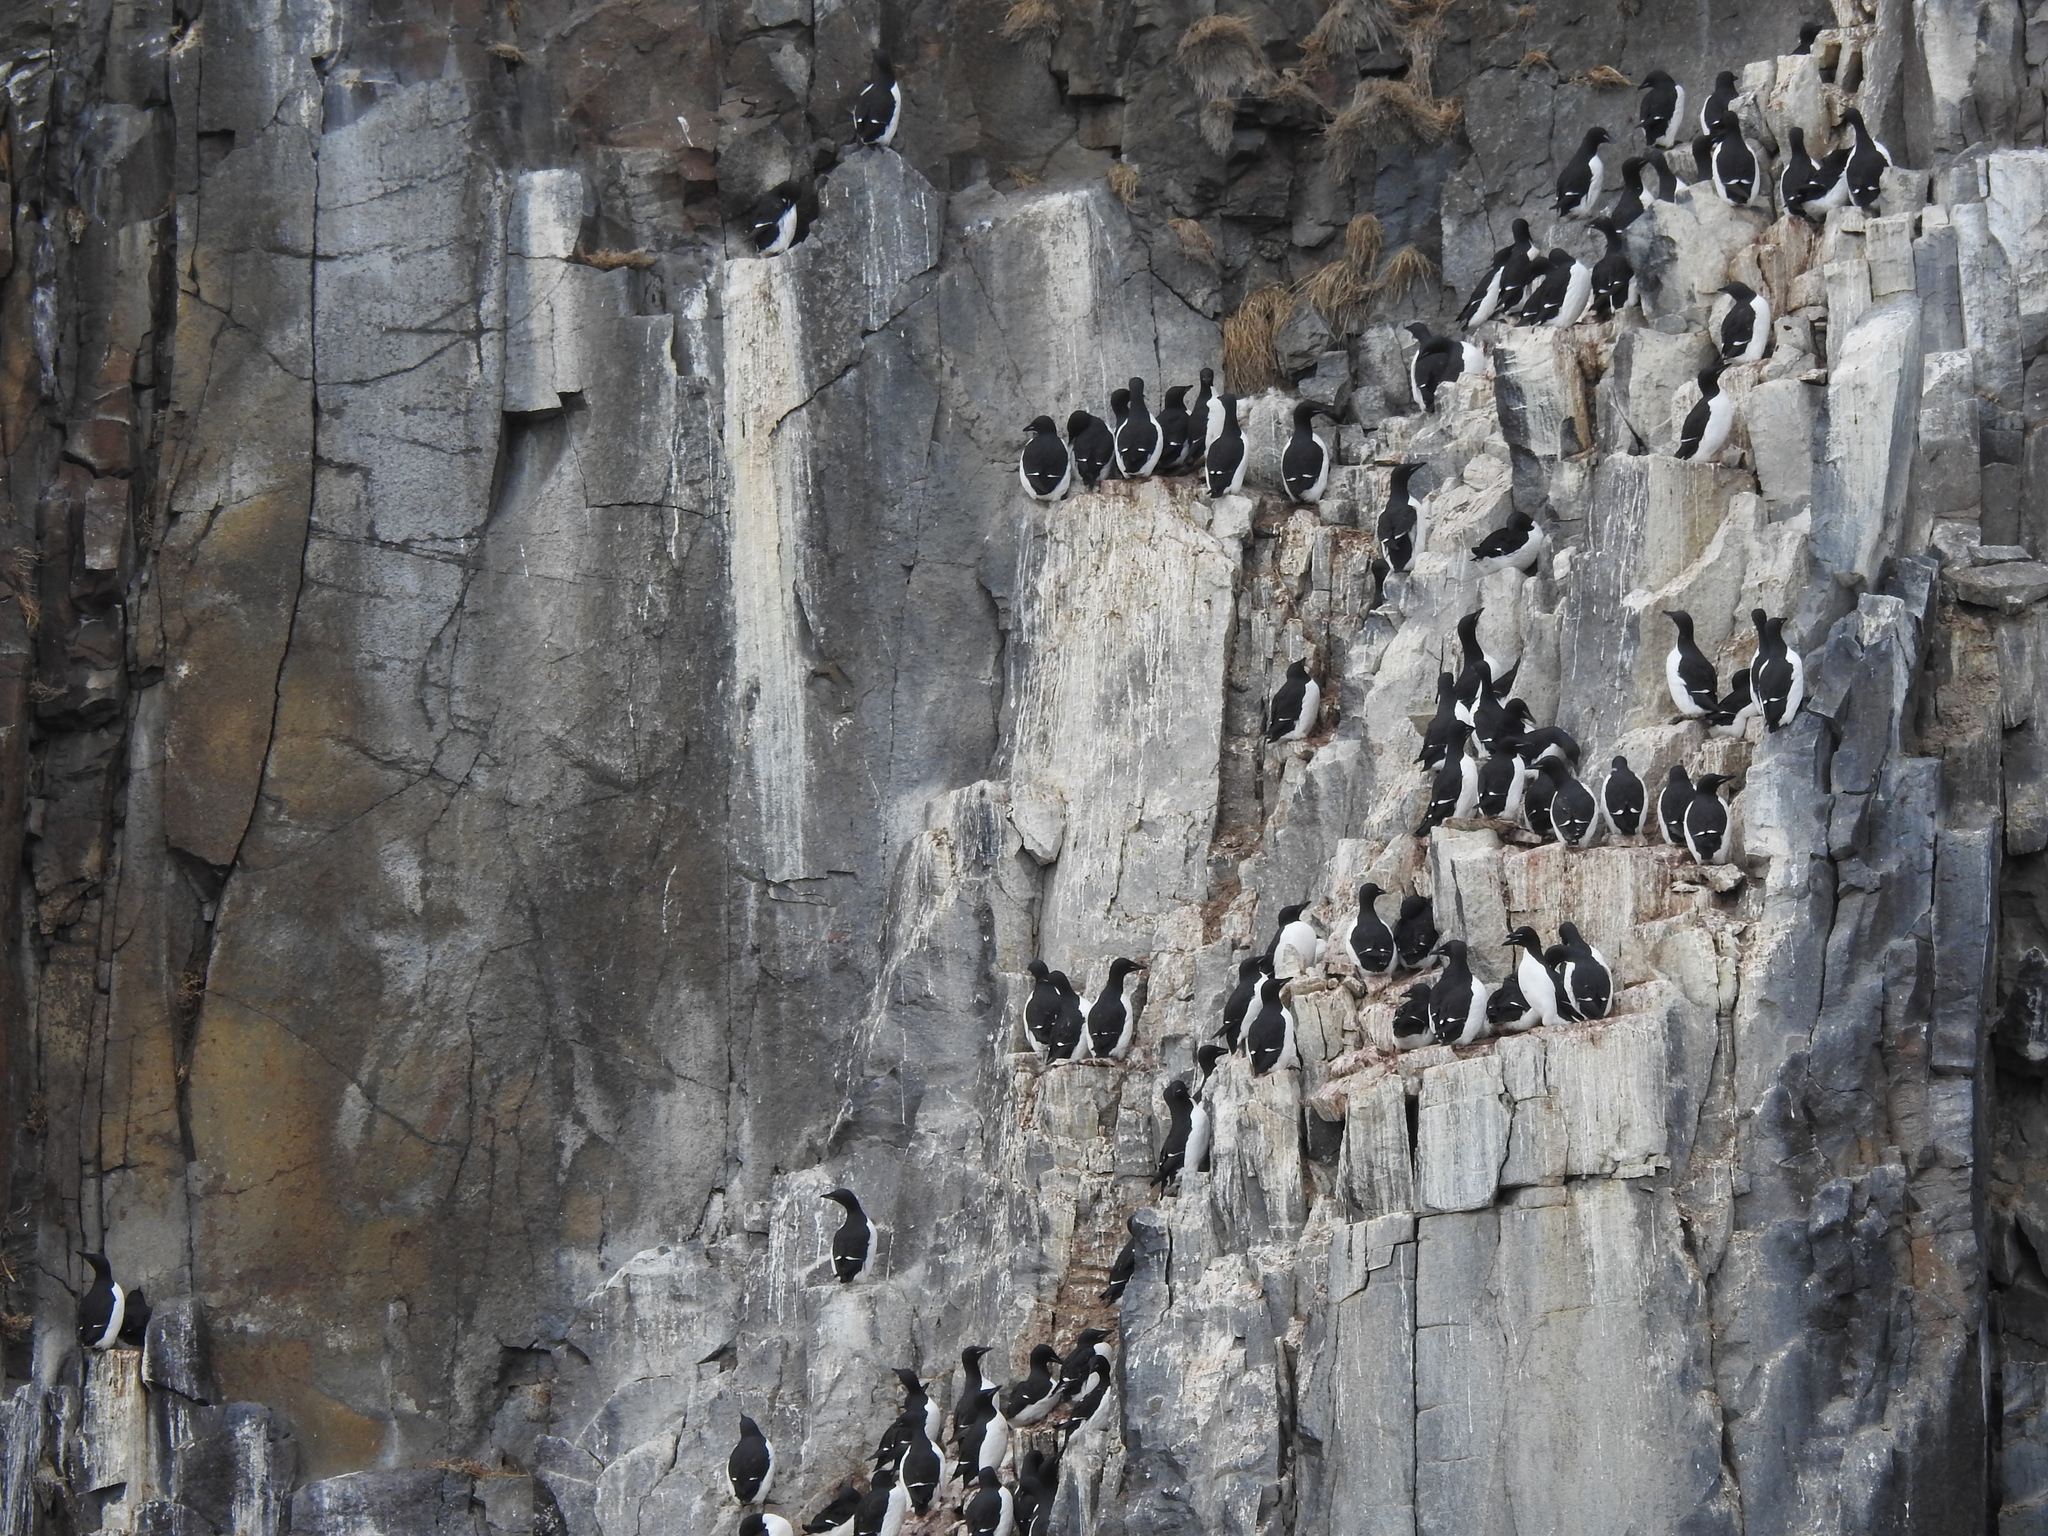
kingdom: Animalia
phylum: Chordata
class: Aves
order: Charadriiformes
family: Alcidae
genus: Uria
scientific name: Uria lomvia
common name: Thick-billed murre
